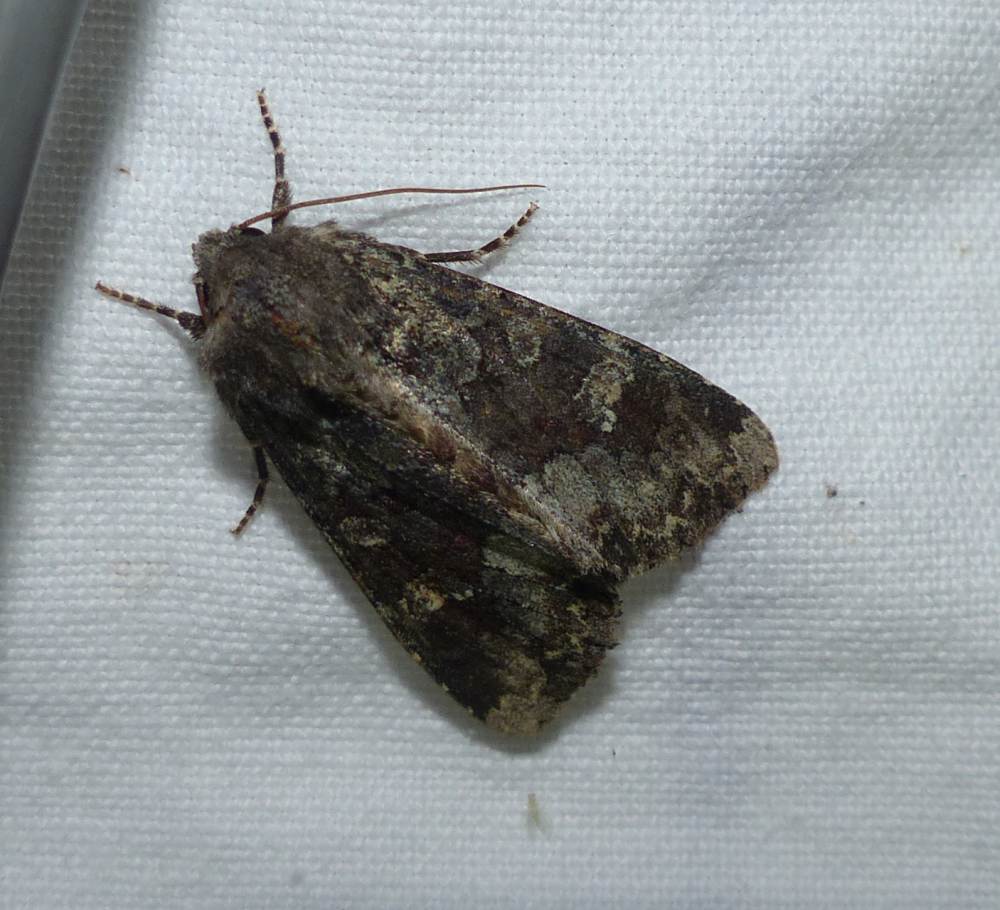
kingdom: Animalia
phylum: Arthropoda
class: Insecta
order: Lepidoptera
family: Noctuidae
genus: Apamea
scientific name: Apamea amputatrix
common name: Yellow-headed cutworm moth
